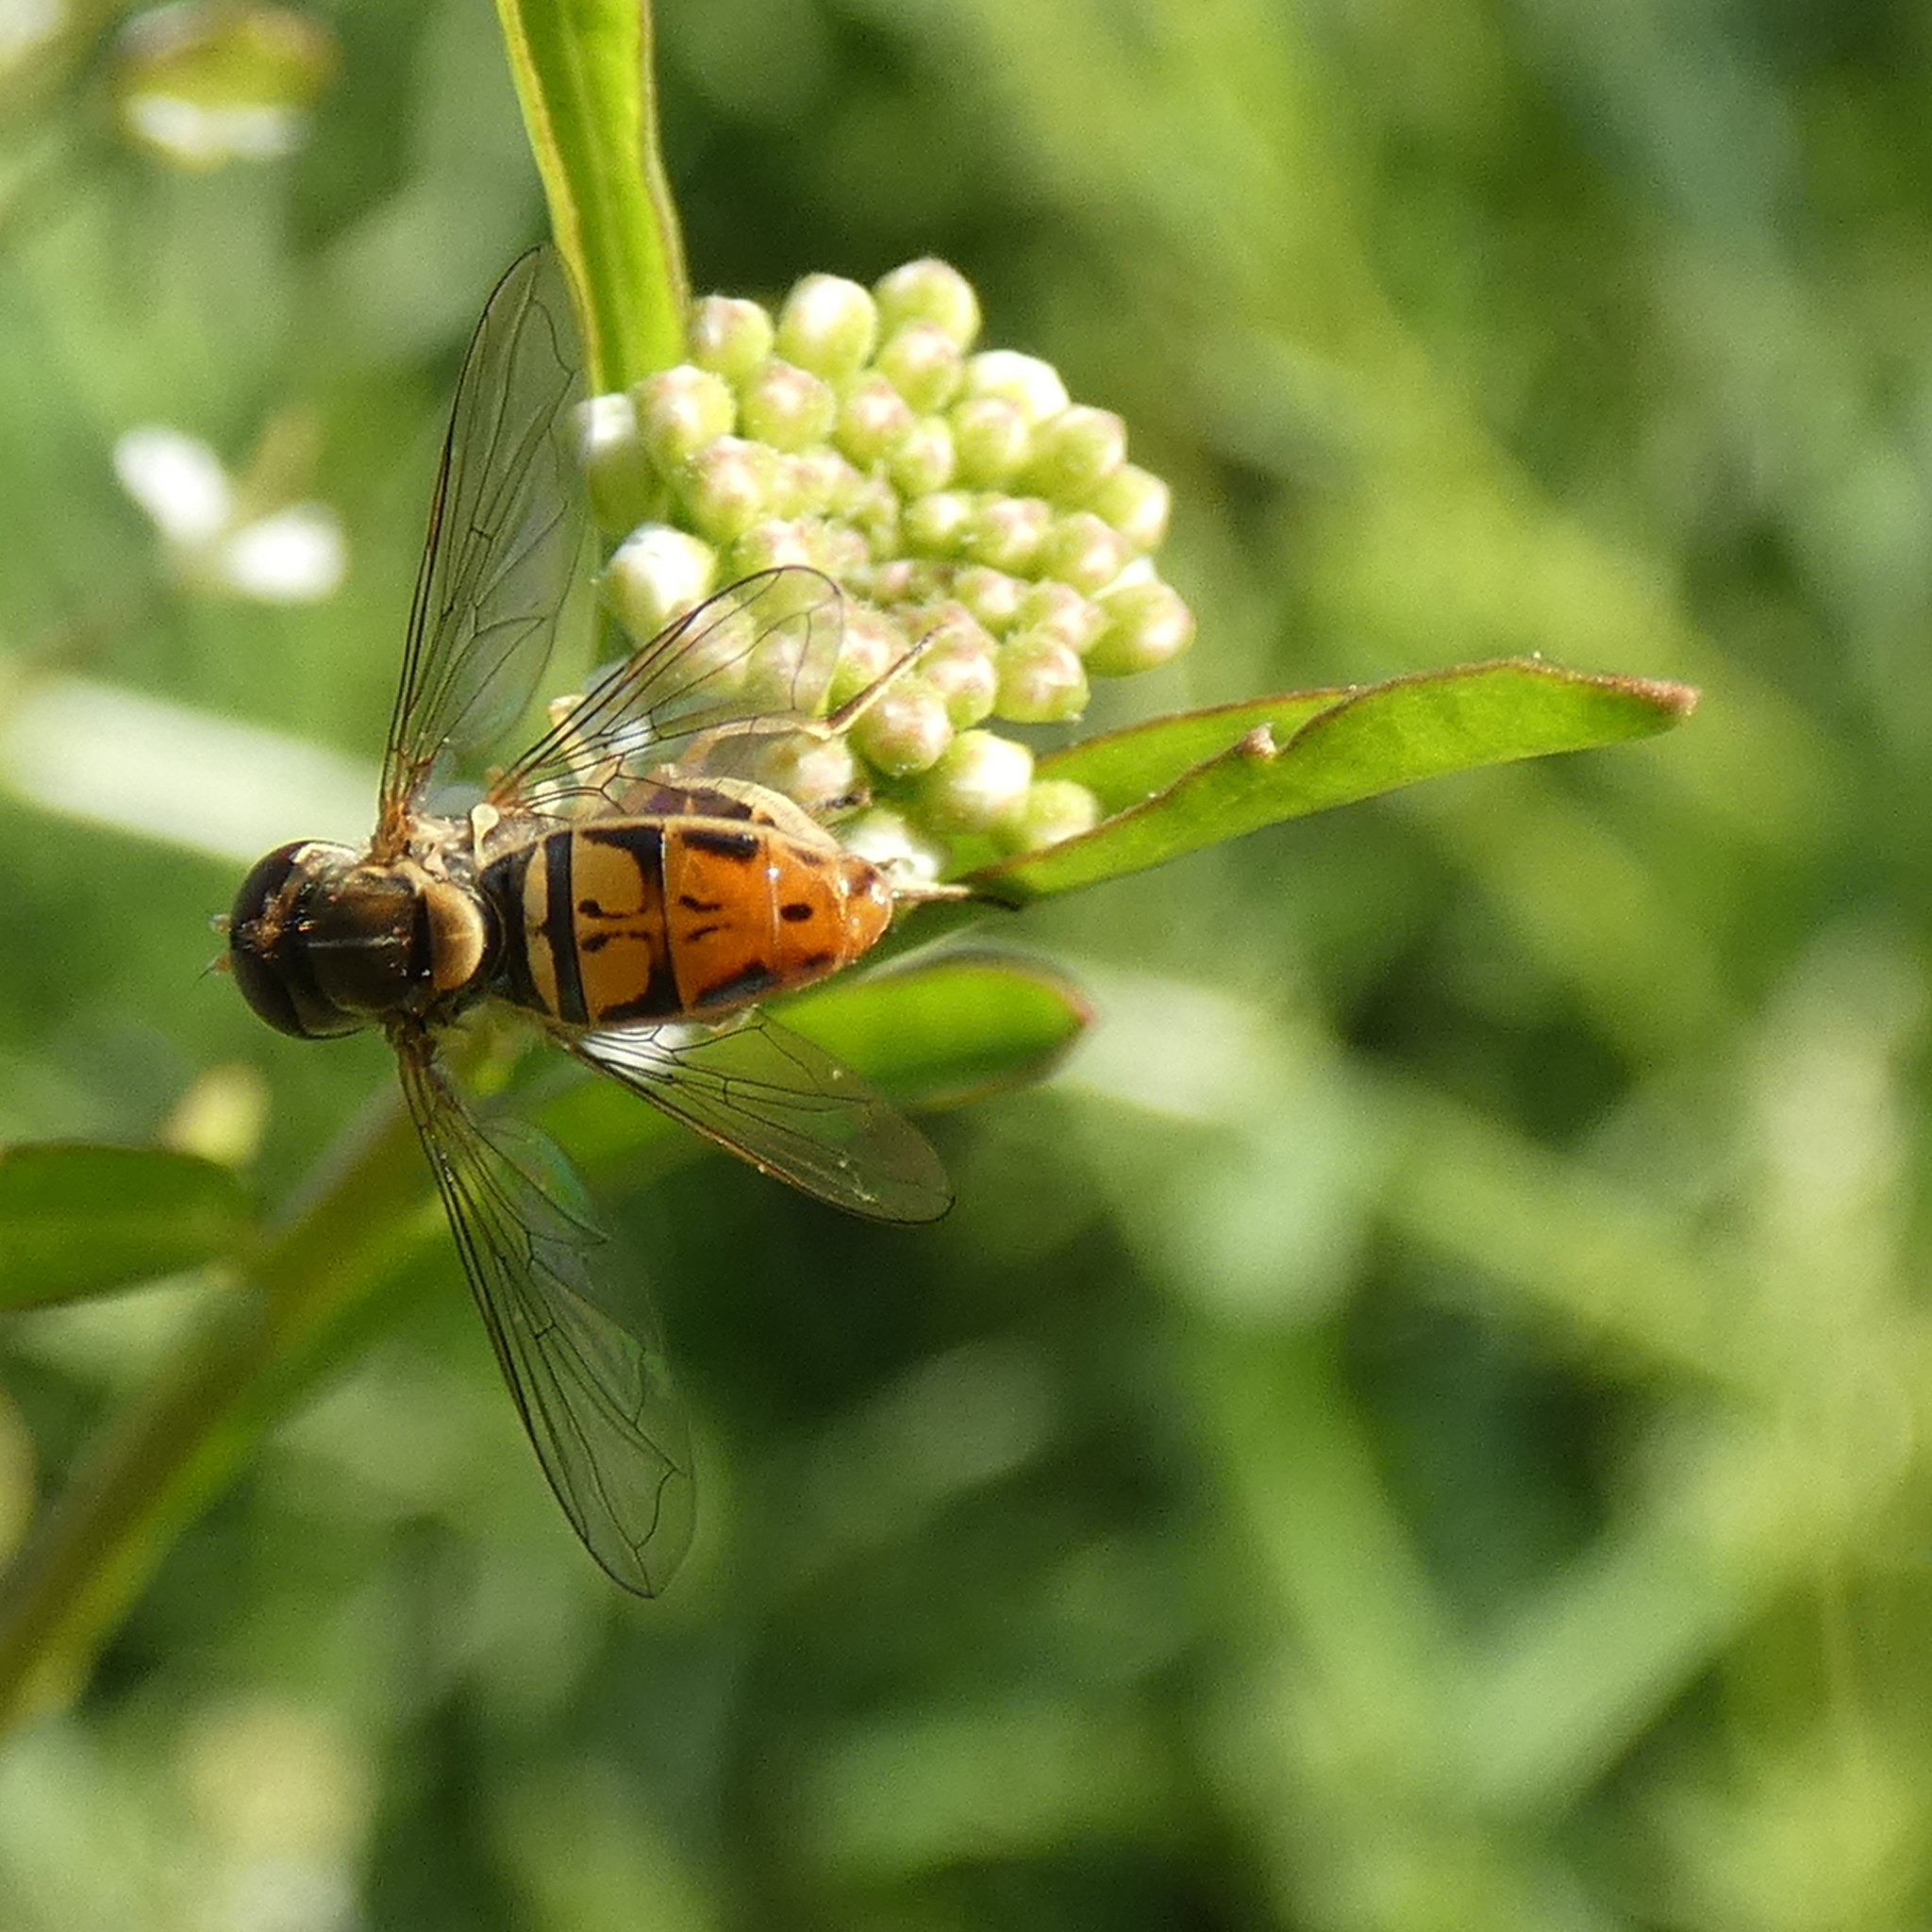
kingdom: Animalia
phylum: Arthropoda
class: Insecta
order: Diptera
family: Syrphidae
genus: Toxomerus
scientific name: Toxomerus marginatus
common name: Syrphid fly
